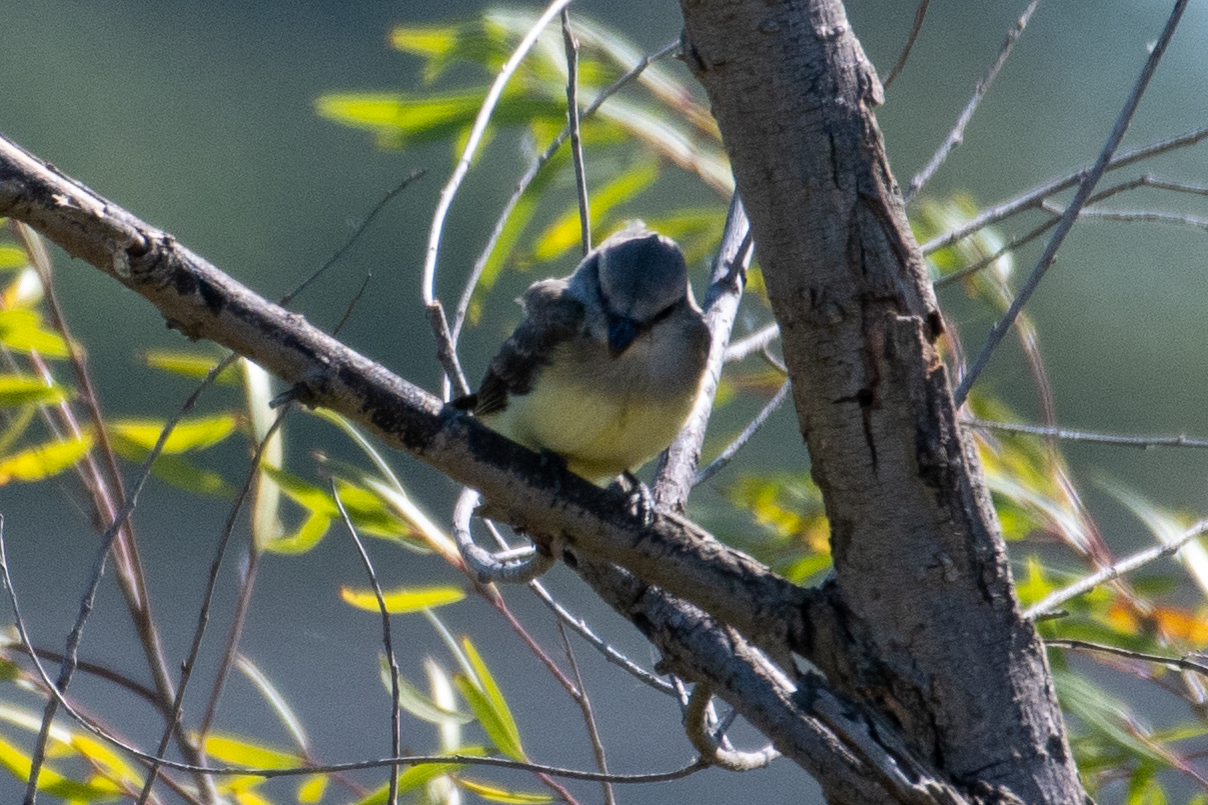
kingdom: Animalia
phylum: Chordata
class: Aves
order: Passeriformes
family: Tyrannidae
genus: Tyrannus
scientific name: Tyrannus verticalis
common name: Western kingbird
